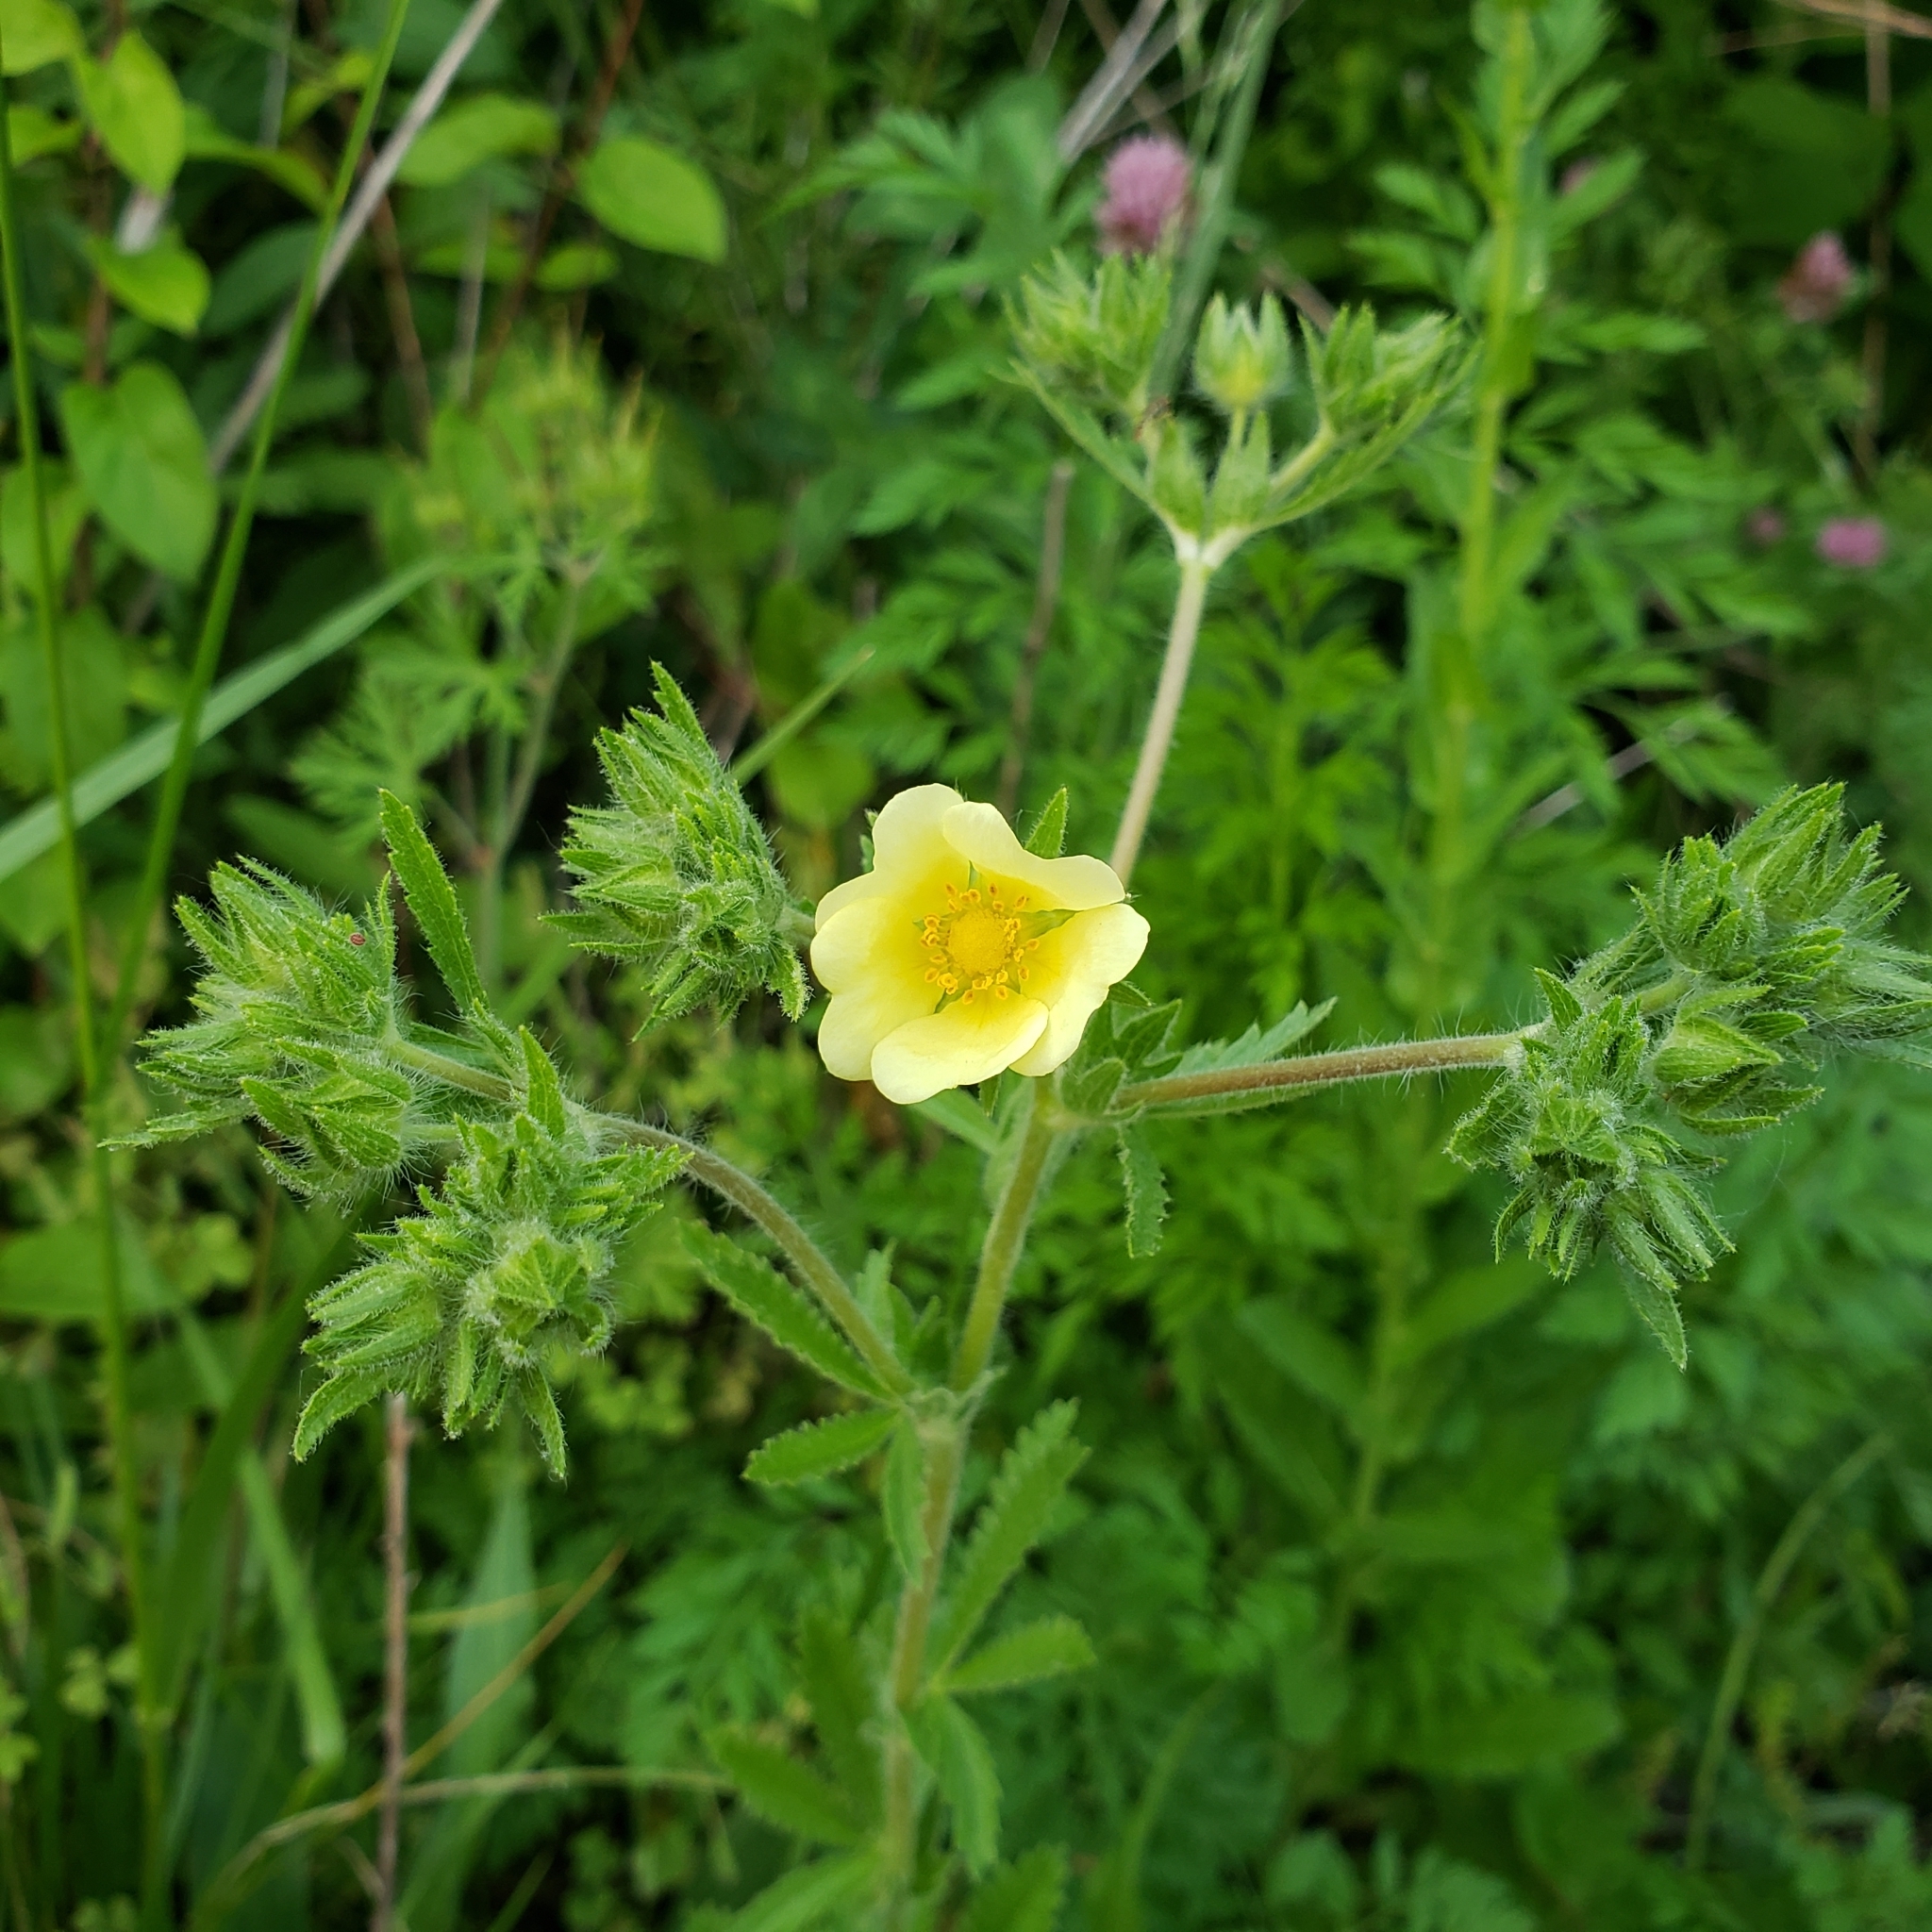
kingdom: Plantae
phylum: Tracheophyta
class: Magnoliopsida
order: Rosales
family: Rosaceae
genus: Potentilla
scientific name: Potentilla recta
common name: Sulphur cinquefoil
